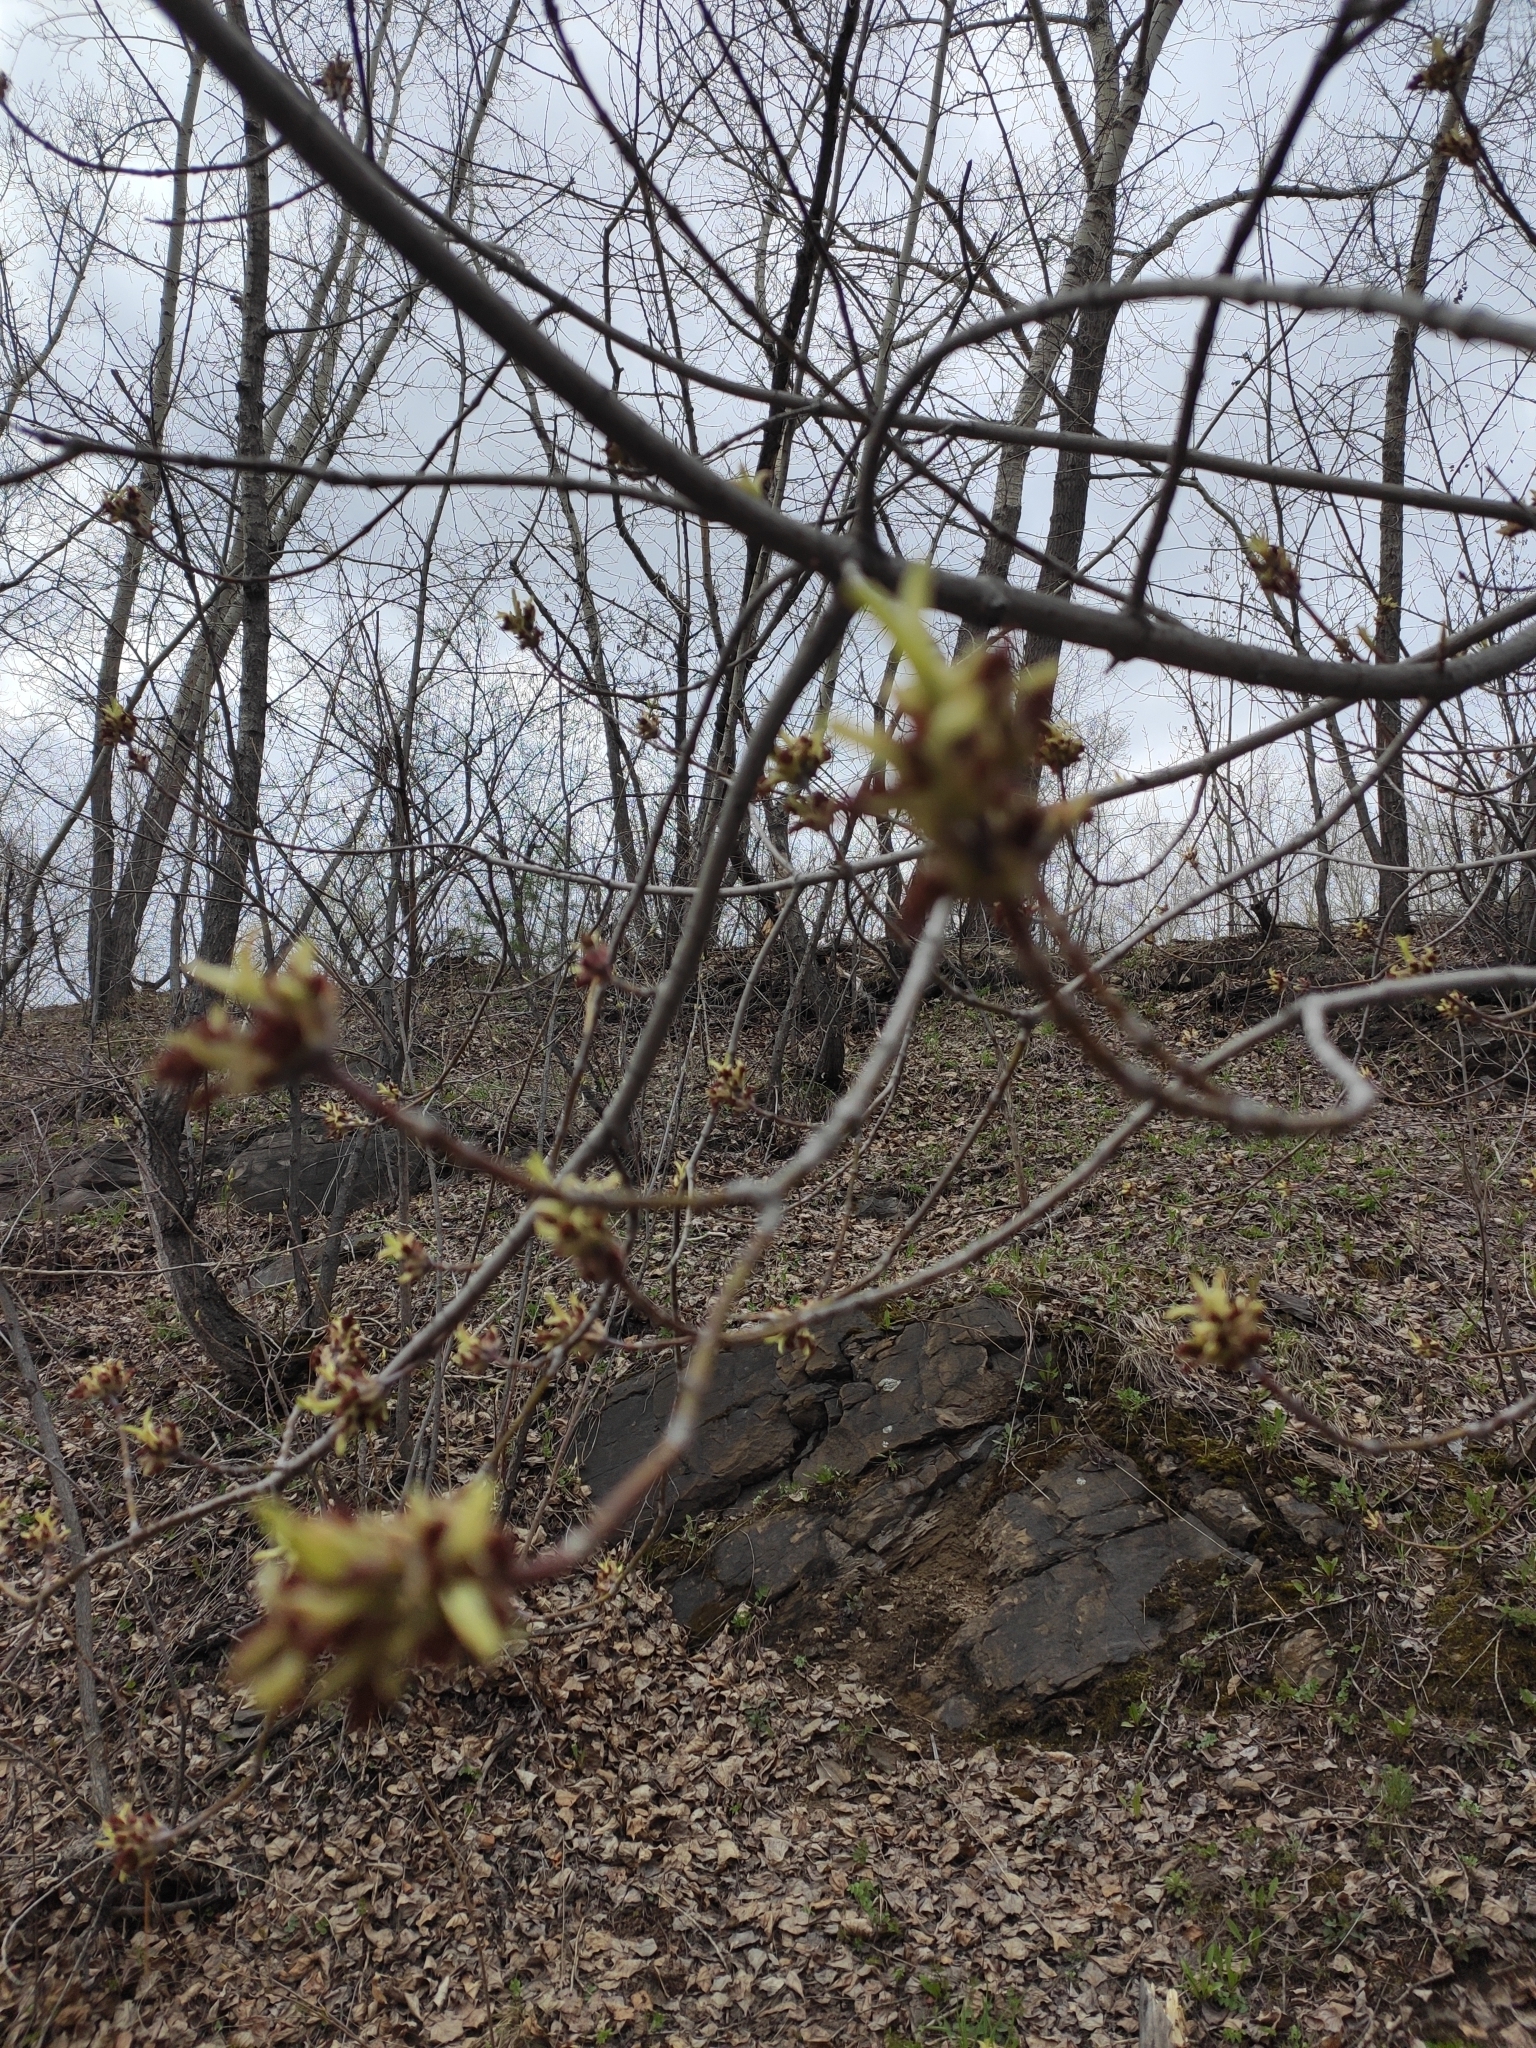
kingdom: Plantae
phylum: Tracheophyta
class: Magnoliopsida
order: Sapindales
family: Sapindaceae
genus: Acer
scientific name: Acer negundo
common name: Ashleaf maple
